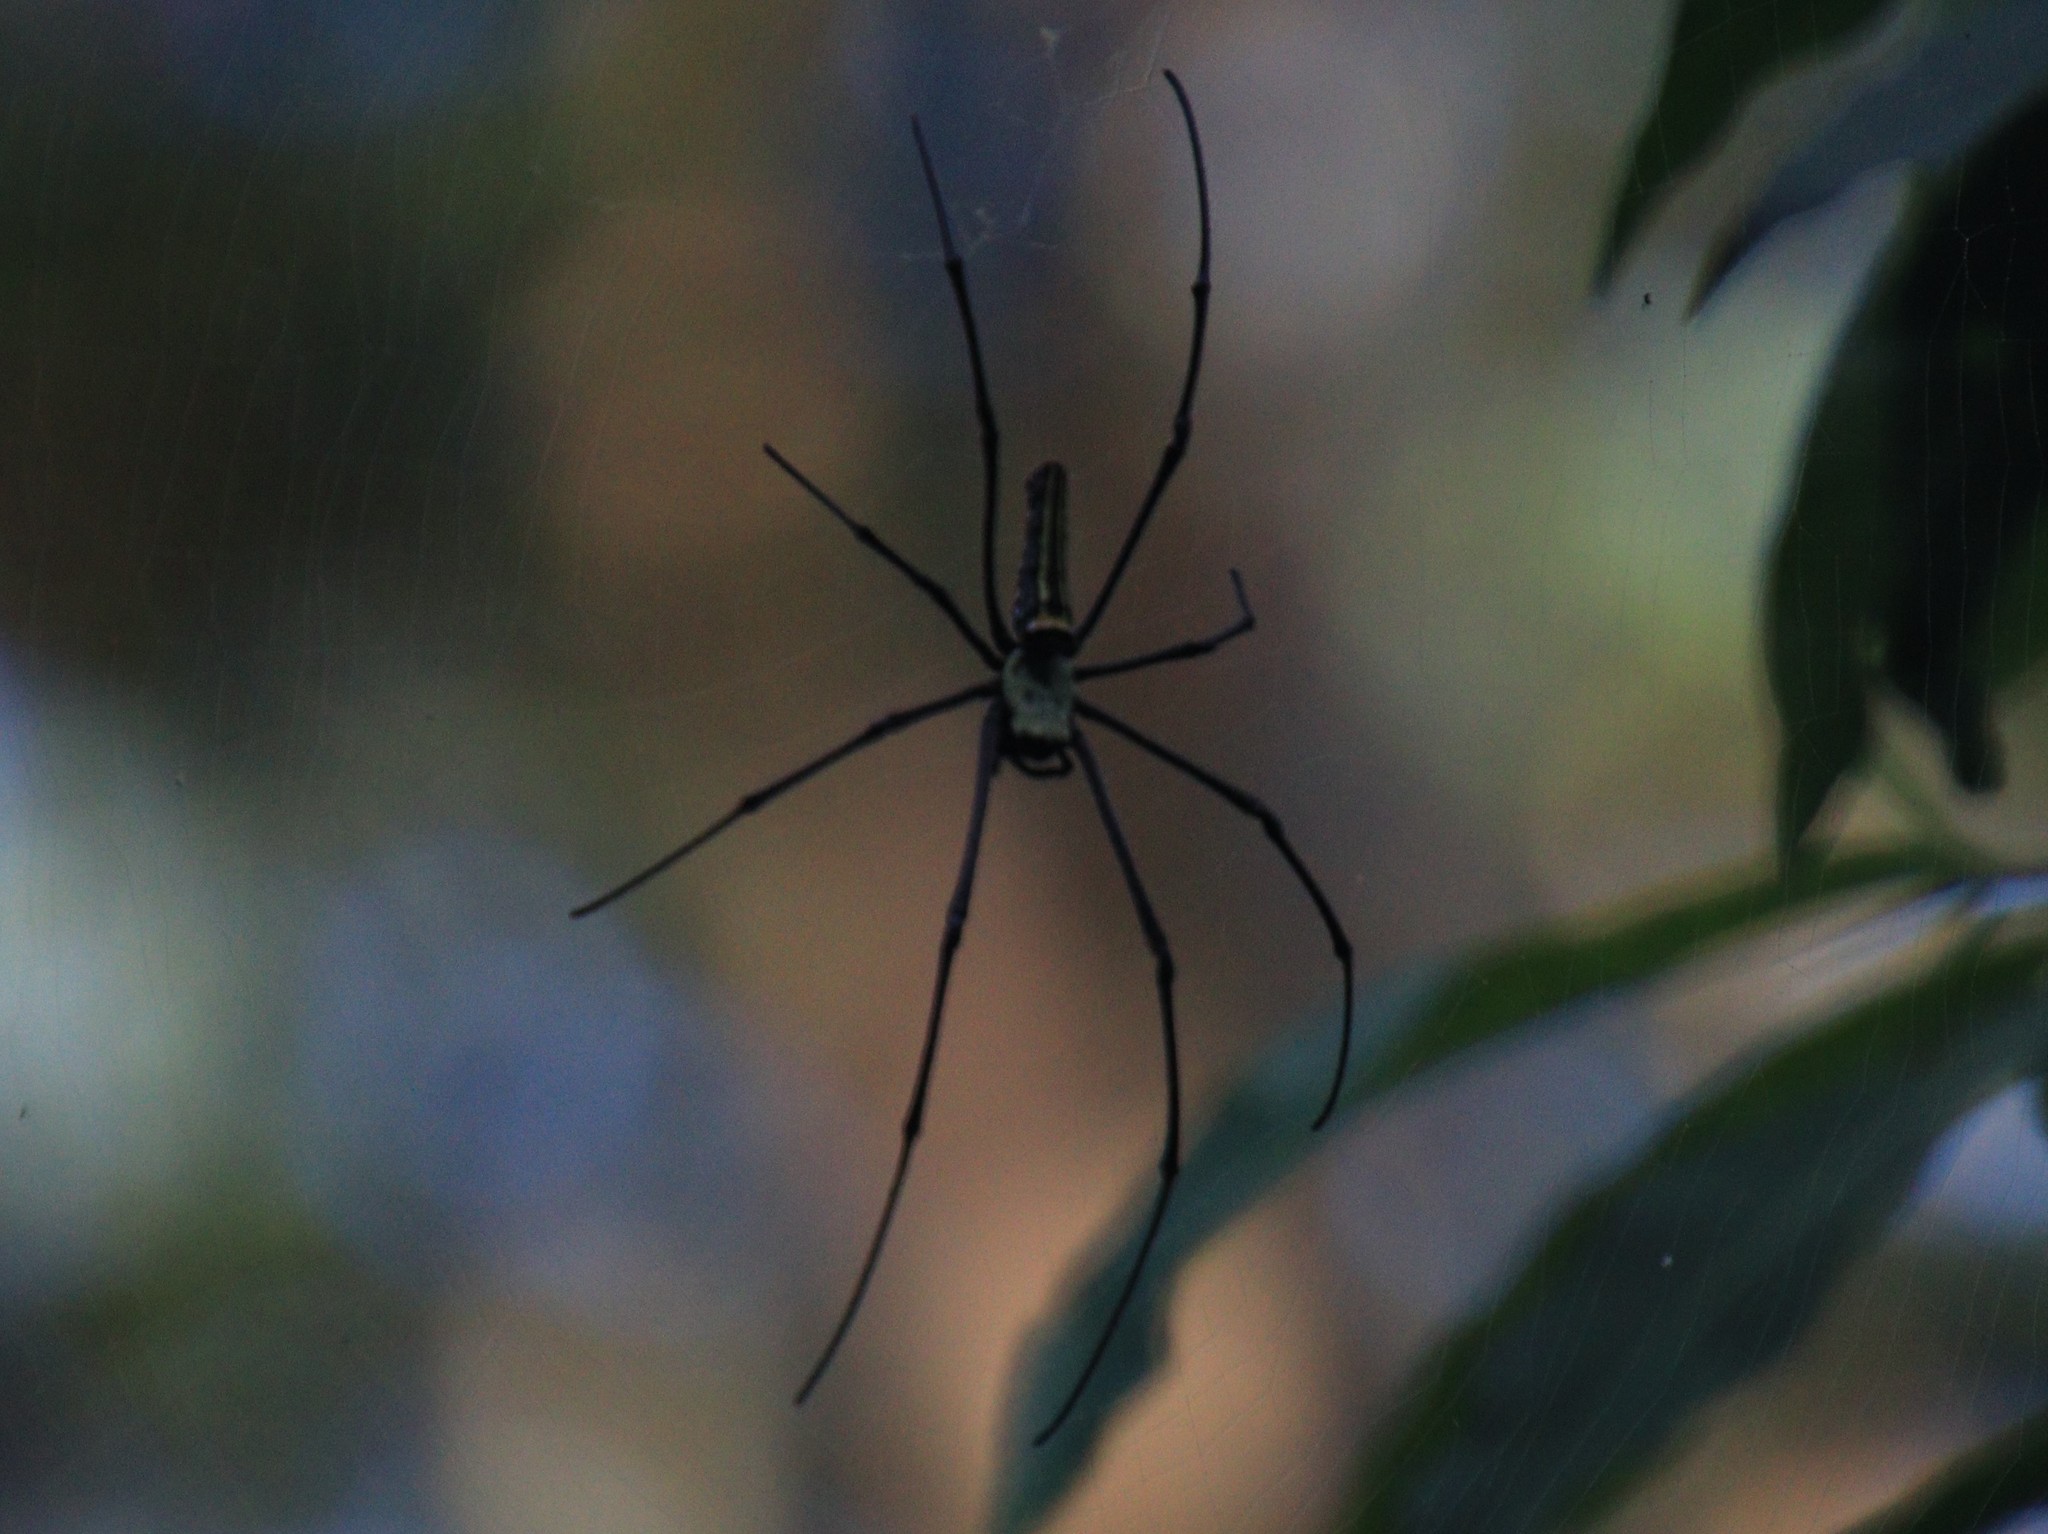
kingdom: Animalia
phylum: Arthropoda
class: Arachnida
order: Araneae
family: Araneidae
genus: Nephila
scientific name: Nephila pilipes
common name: Giant golden orb weaver
